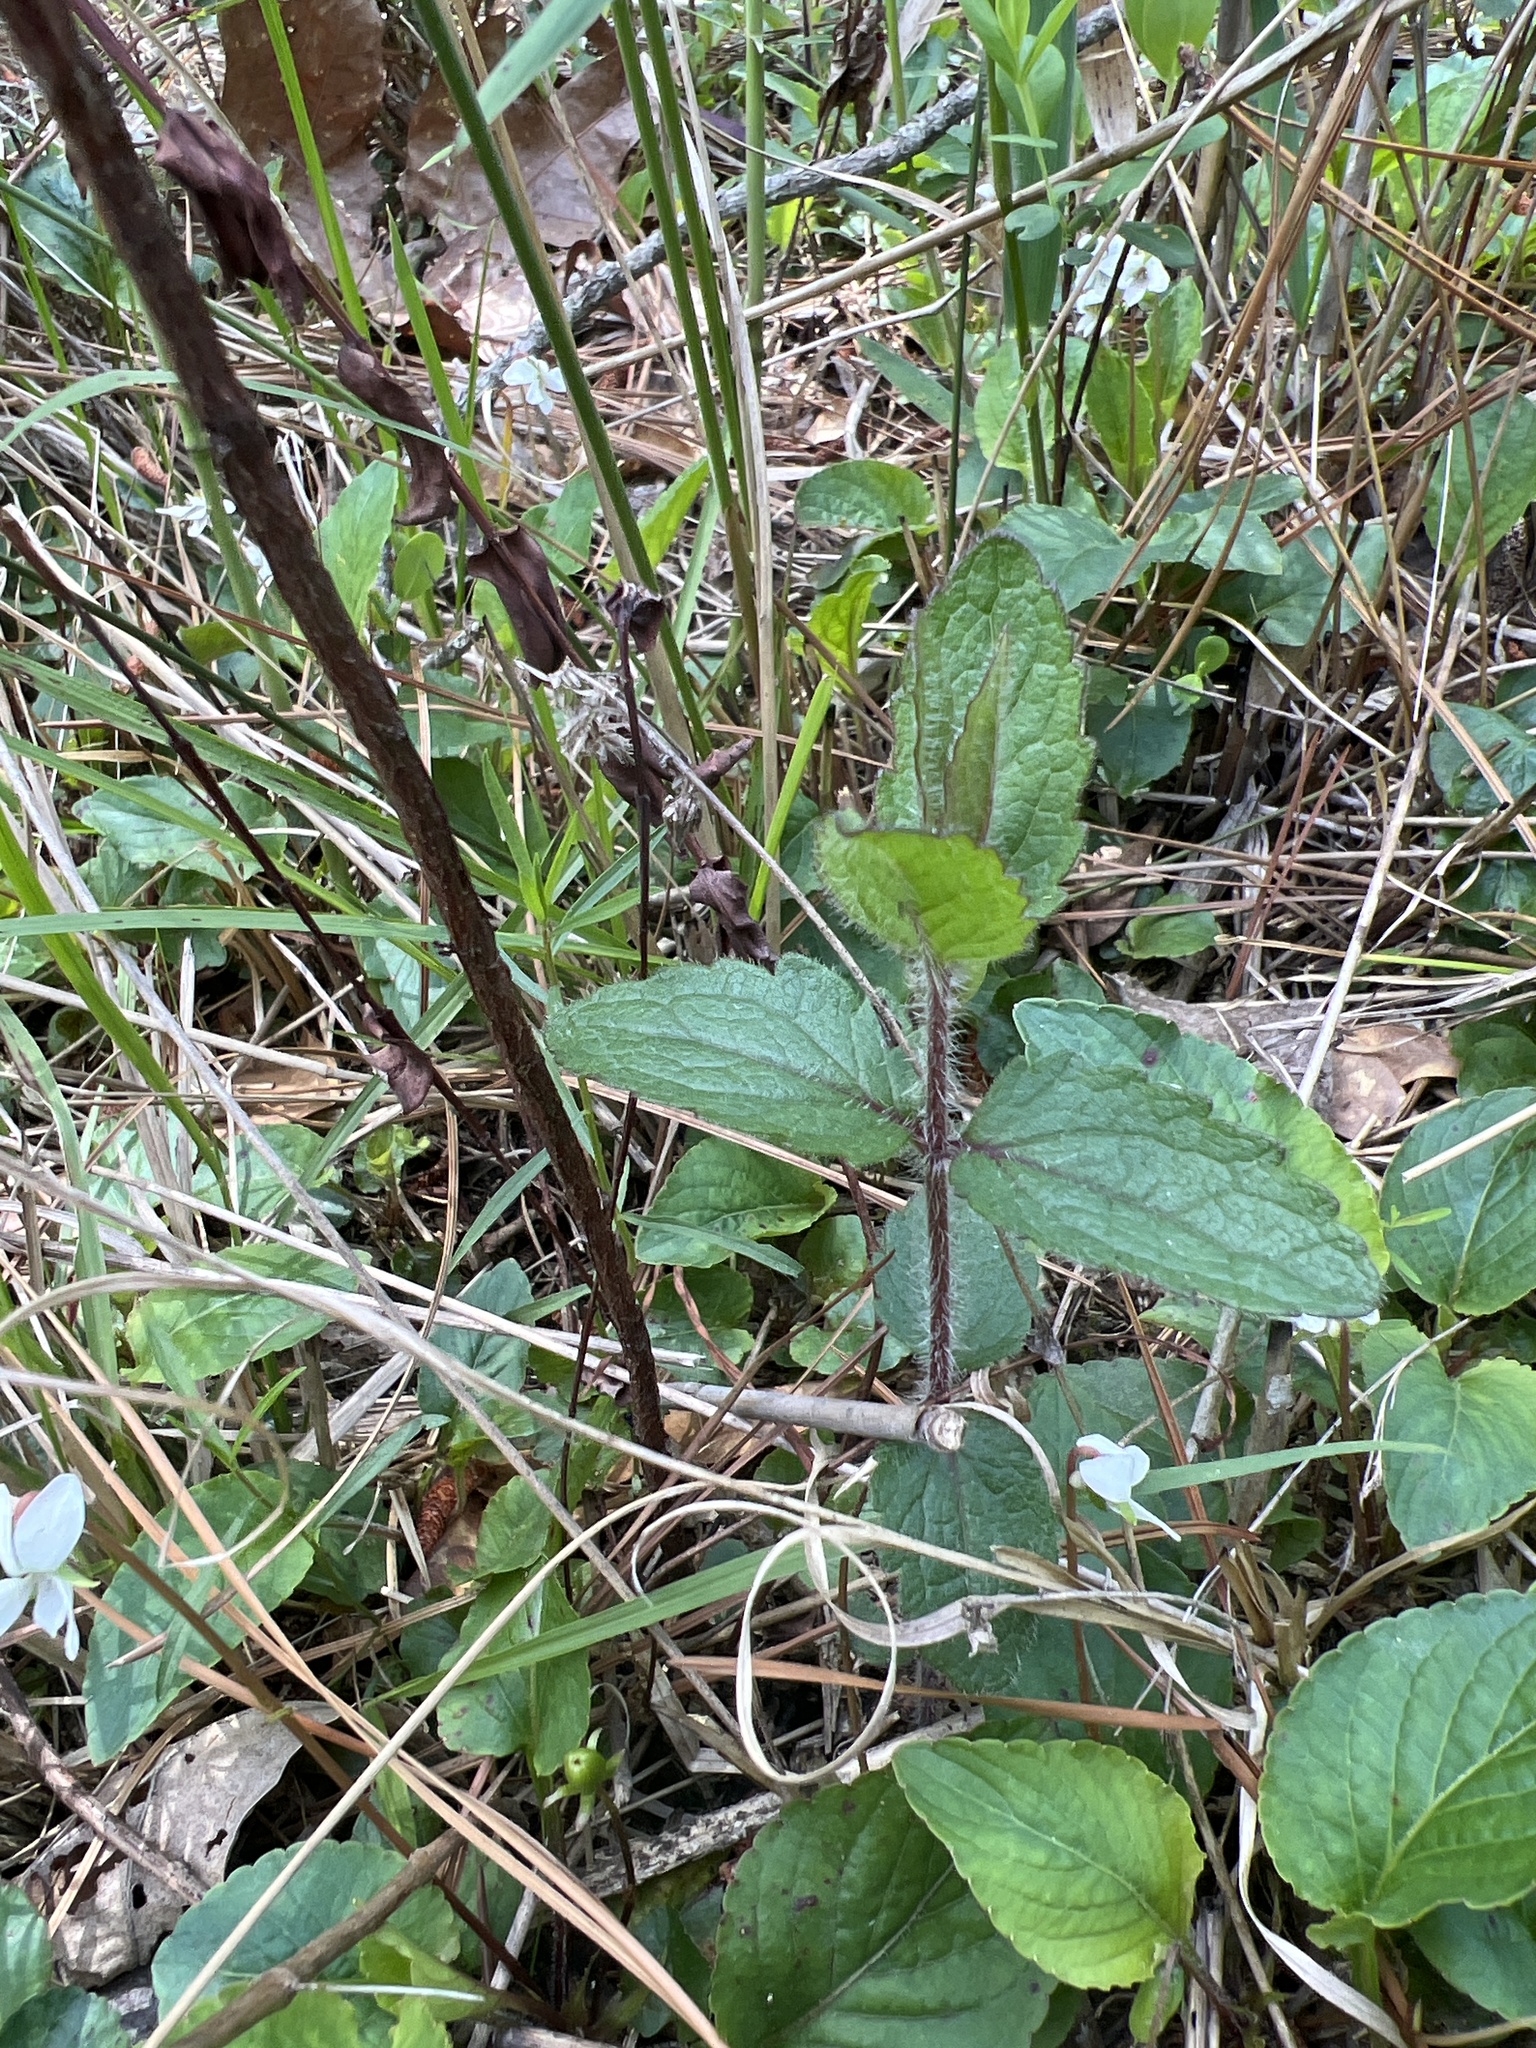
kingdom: Plantae
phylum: Tracheophyta
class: Magnoliopsida
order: Asterales
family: Asteraceae
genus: Eupatorium
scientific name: Eupatorium pilosum
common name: Rough boneset
